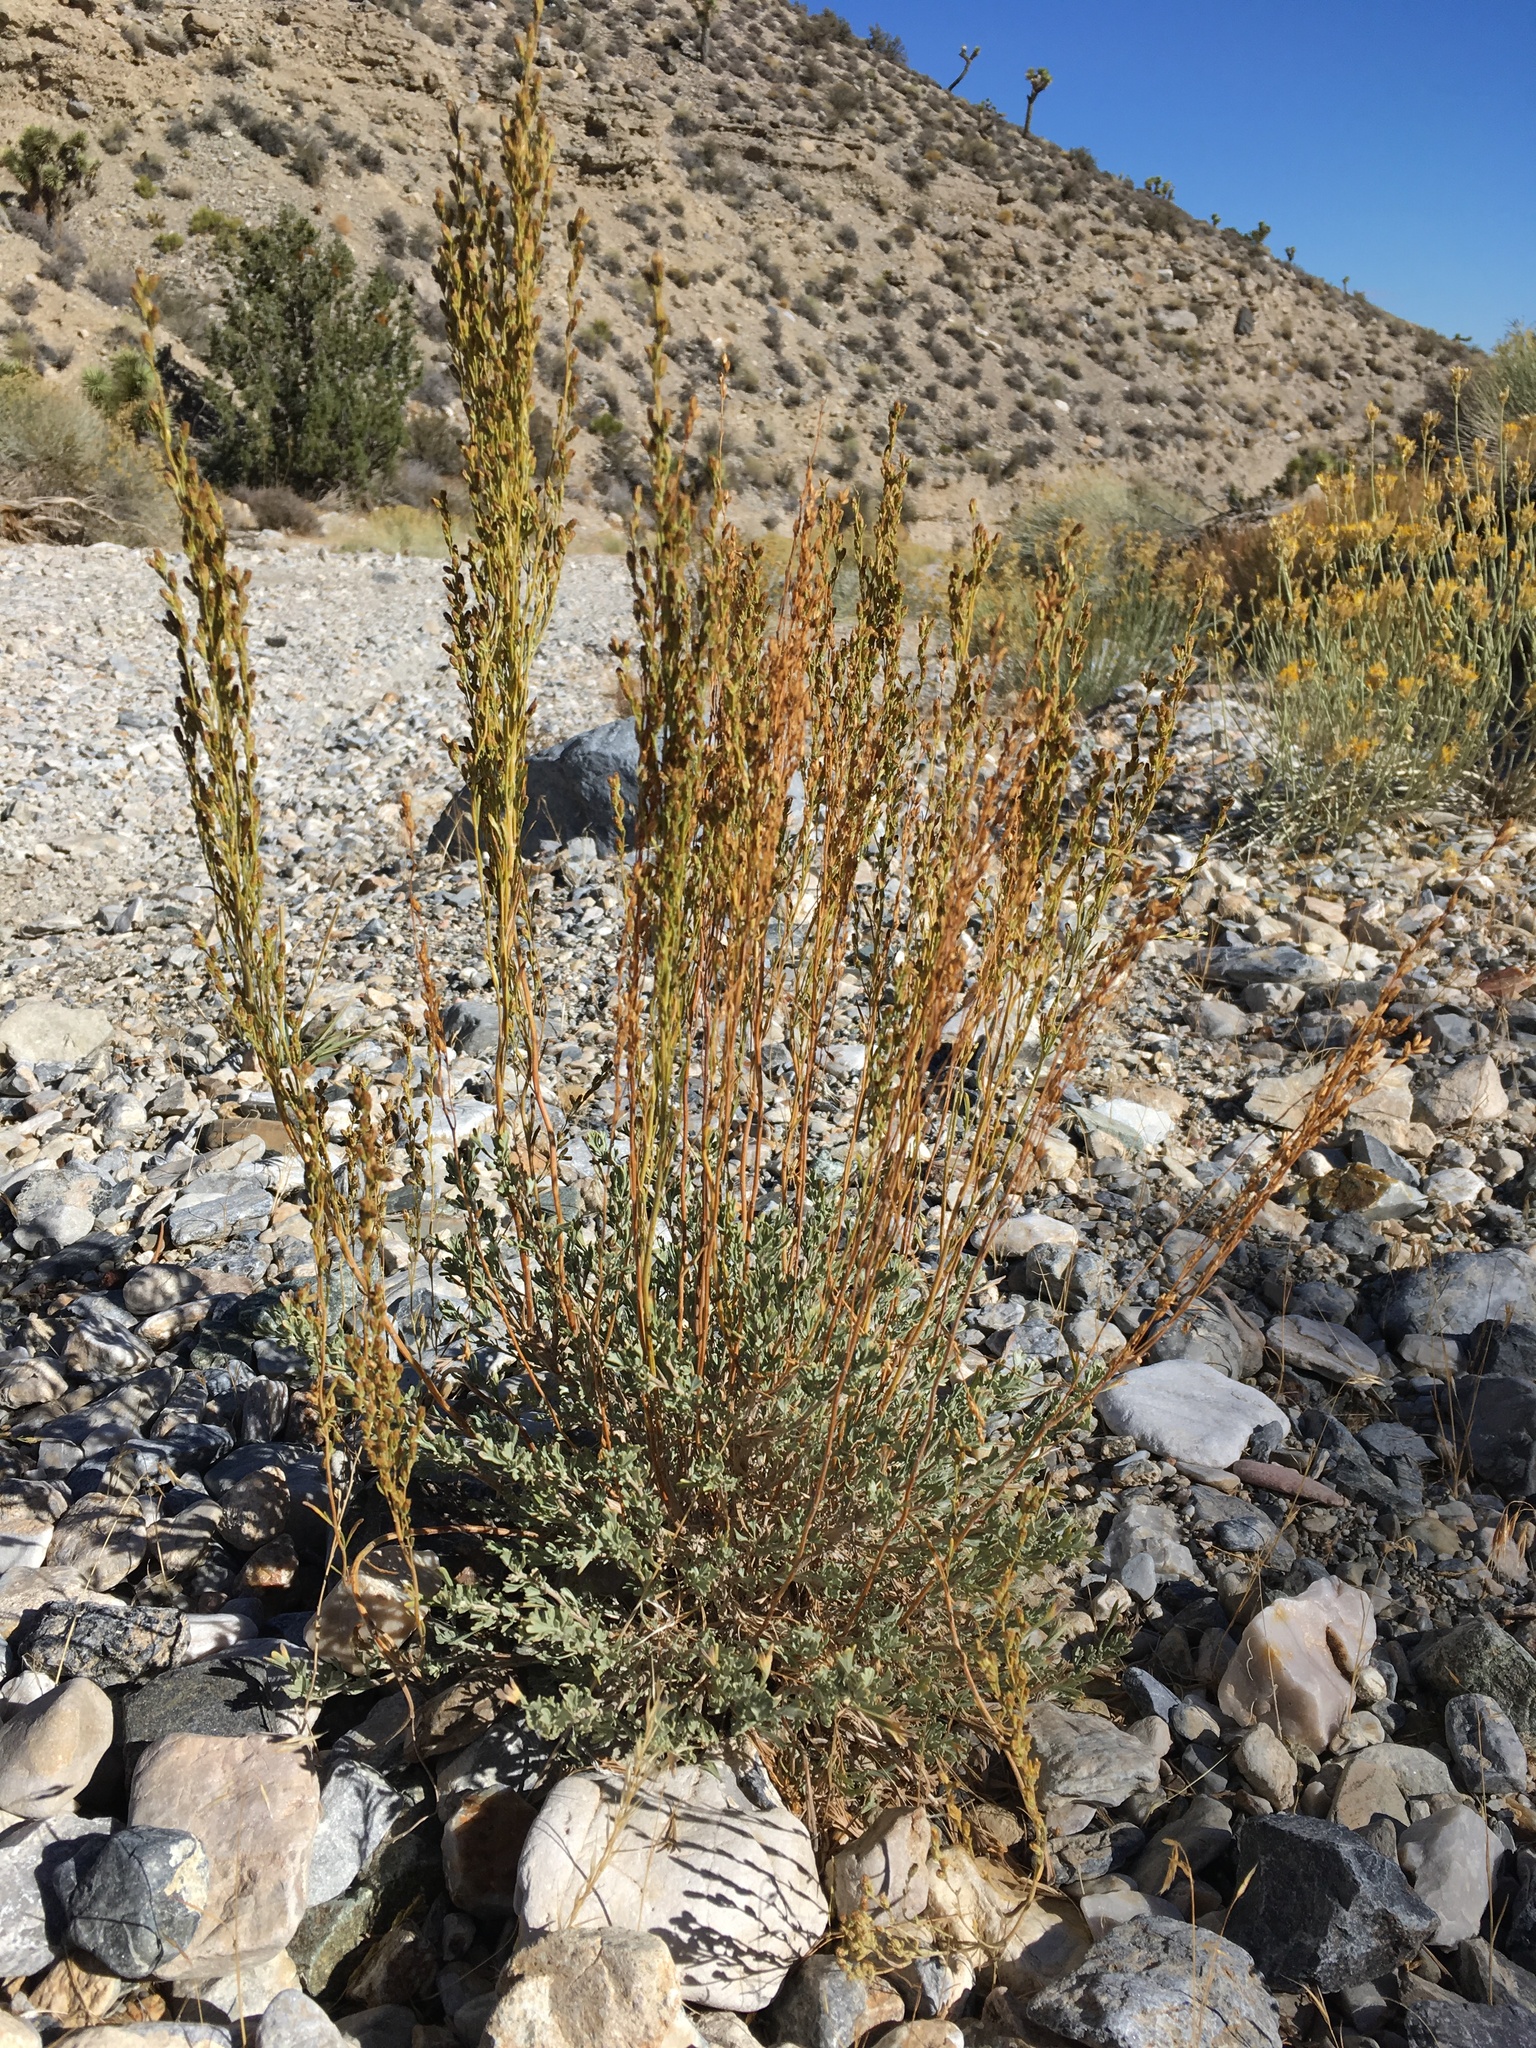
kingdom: Plantae
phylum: Tracheophyta
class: Magnoliopsida
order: Asterales
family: Asteraceae
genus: Artemisia
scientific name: Artemisia nova
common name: Black-sage
